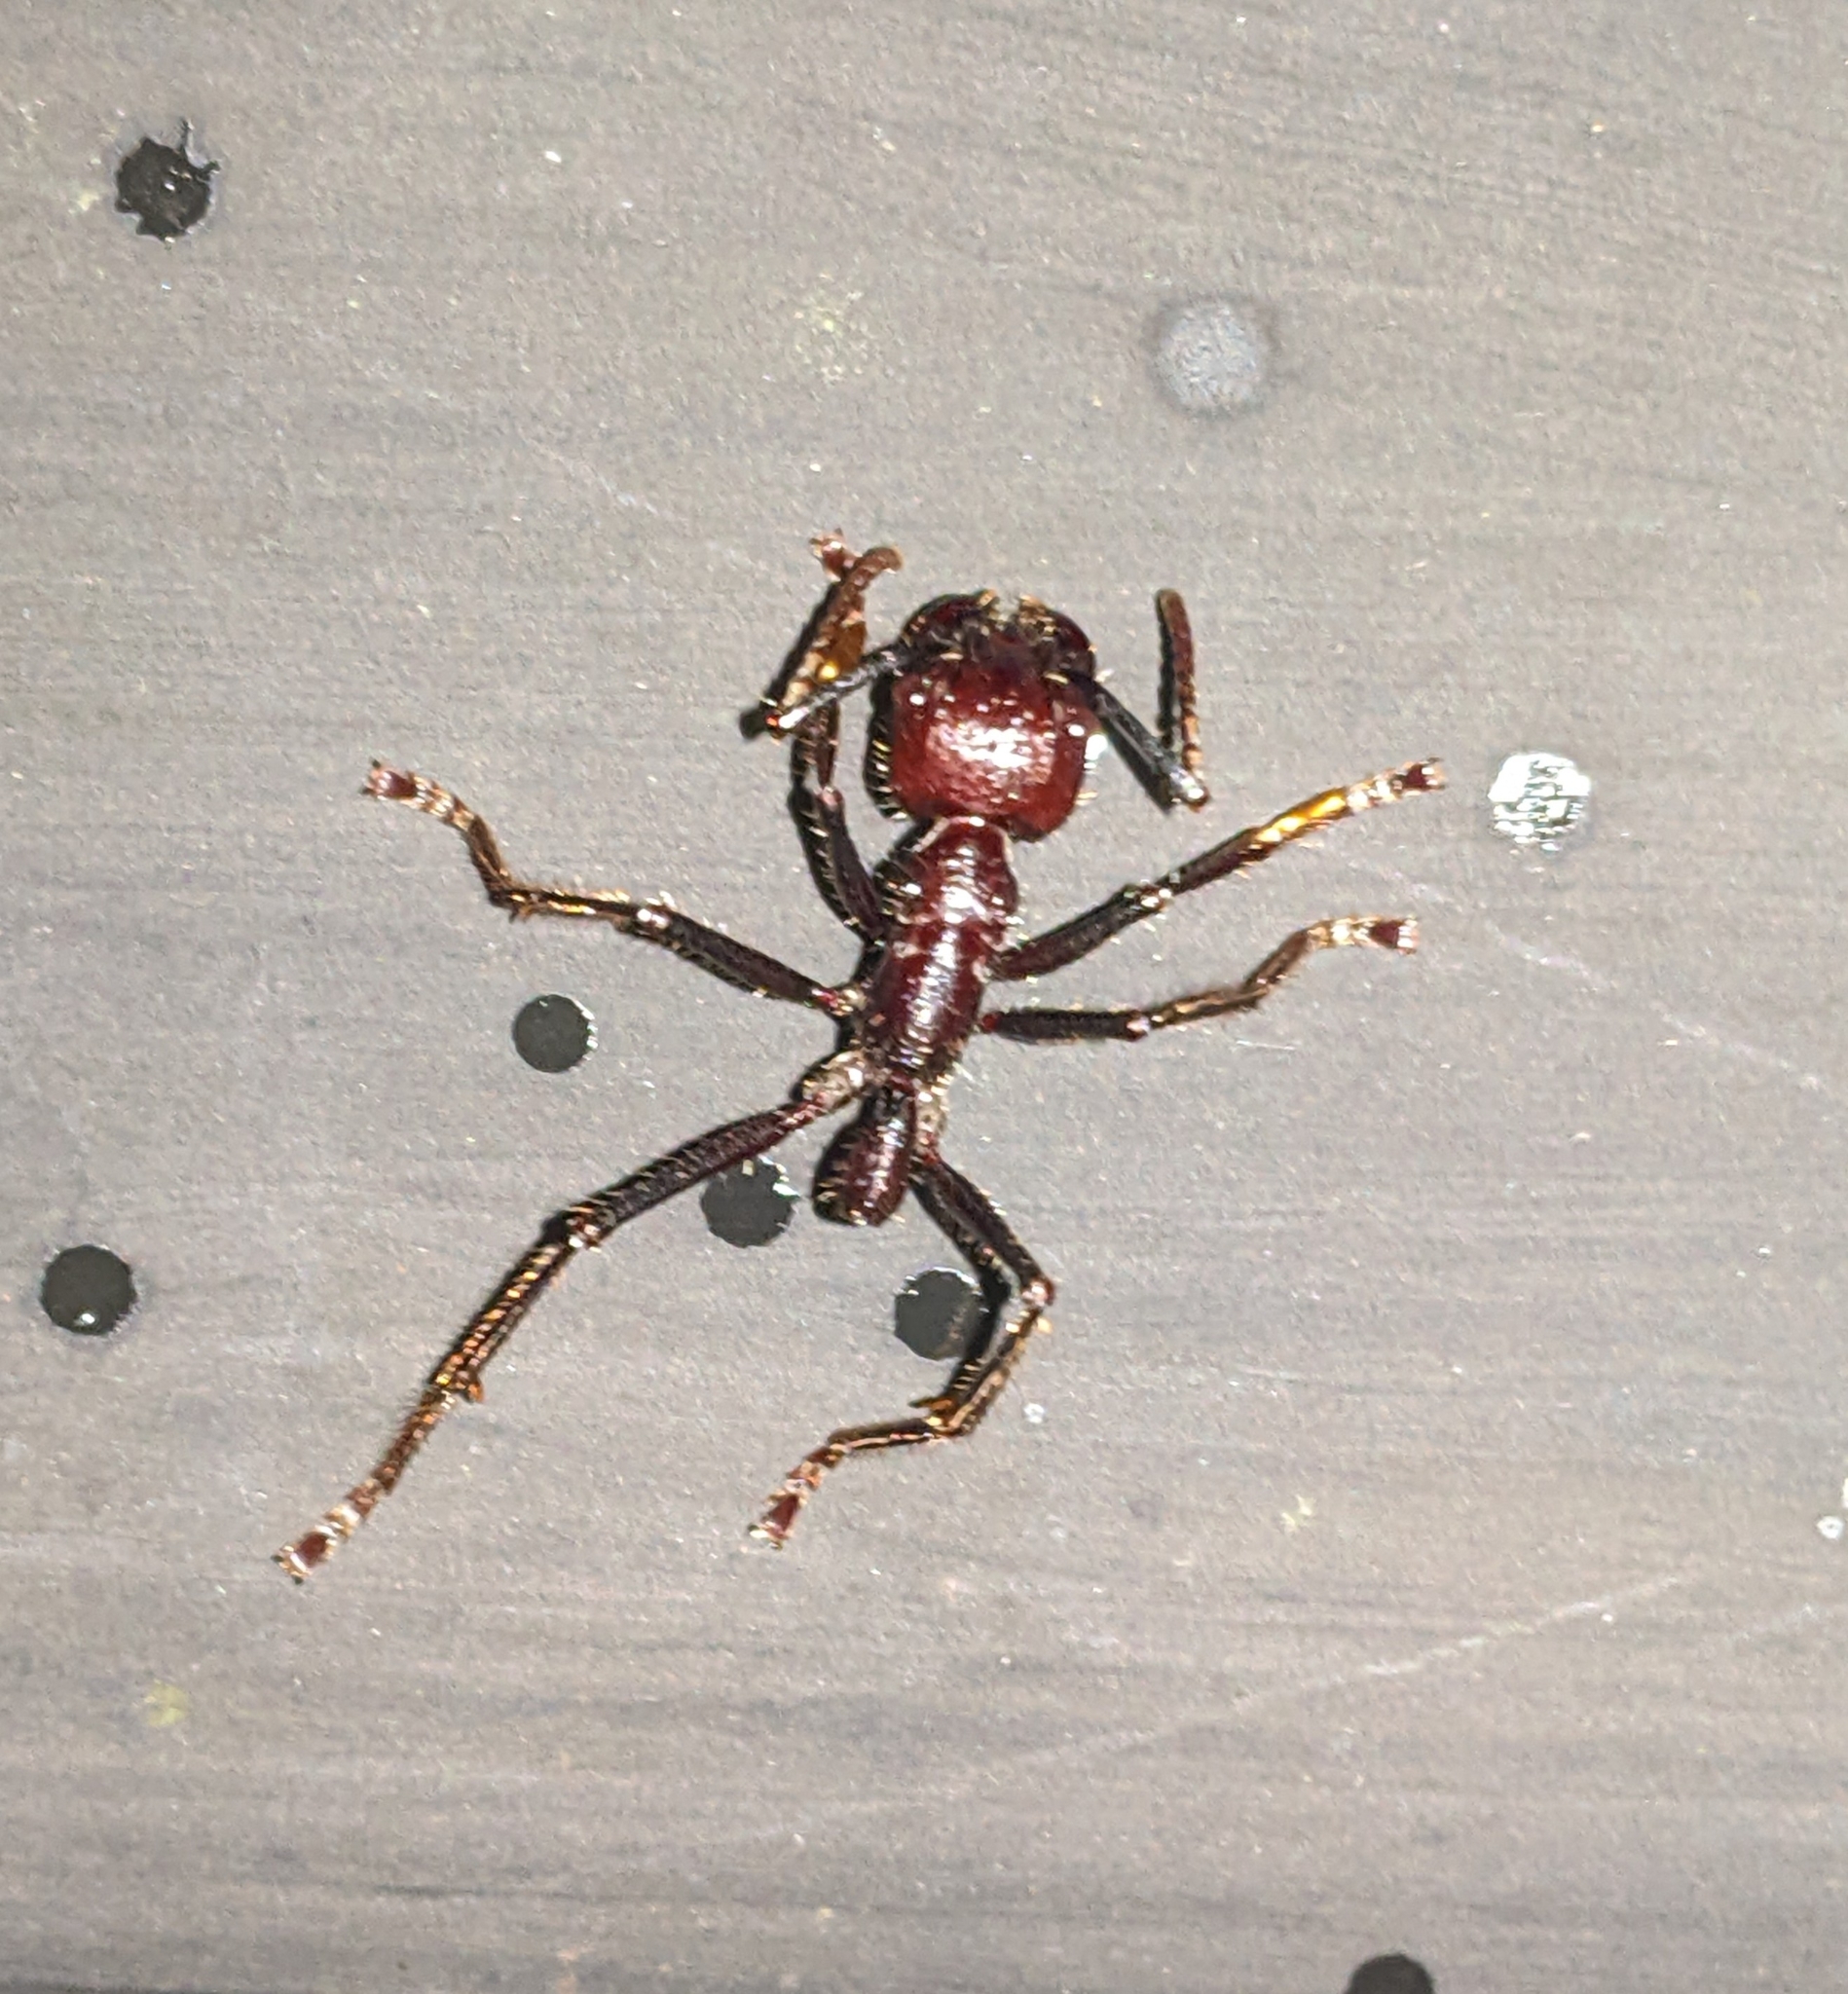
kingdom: Animalia
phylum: Arthropoda
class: Insecta
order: Hymenoptera
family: Formicidae
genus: Paraponera
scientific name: Paraponera clavata
